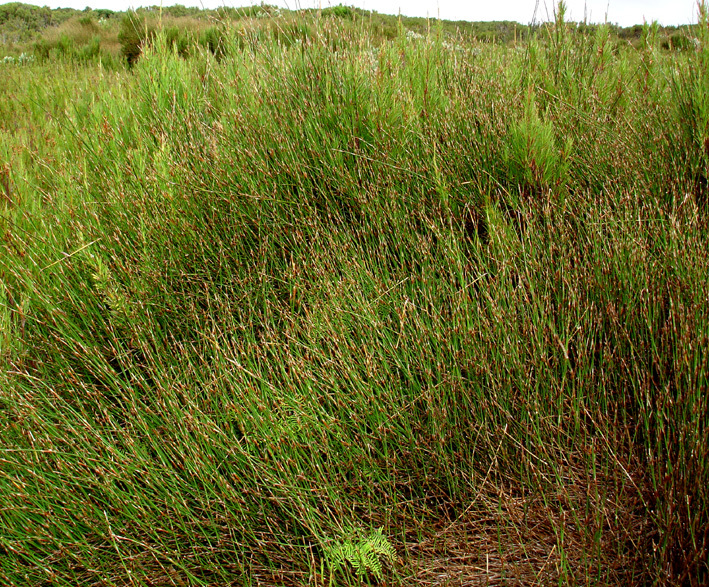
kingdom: Plantae
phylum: Tracheophyta
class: Liliopsida
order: Poales
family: Restionaceae
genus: Sporadanthus
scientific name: Sporadanthus traversii
